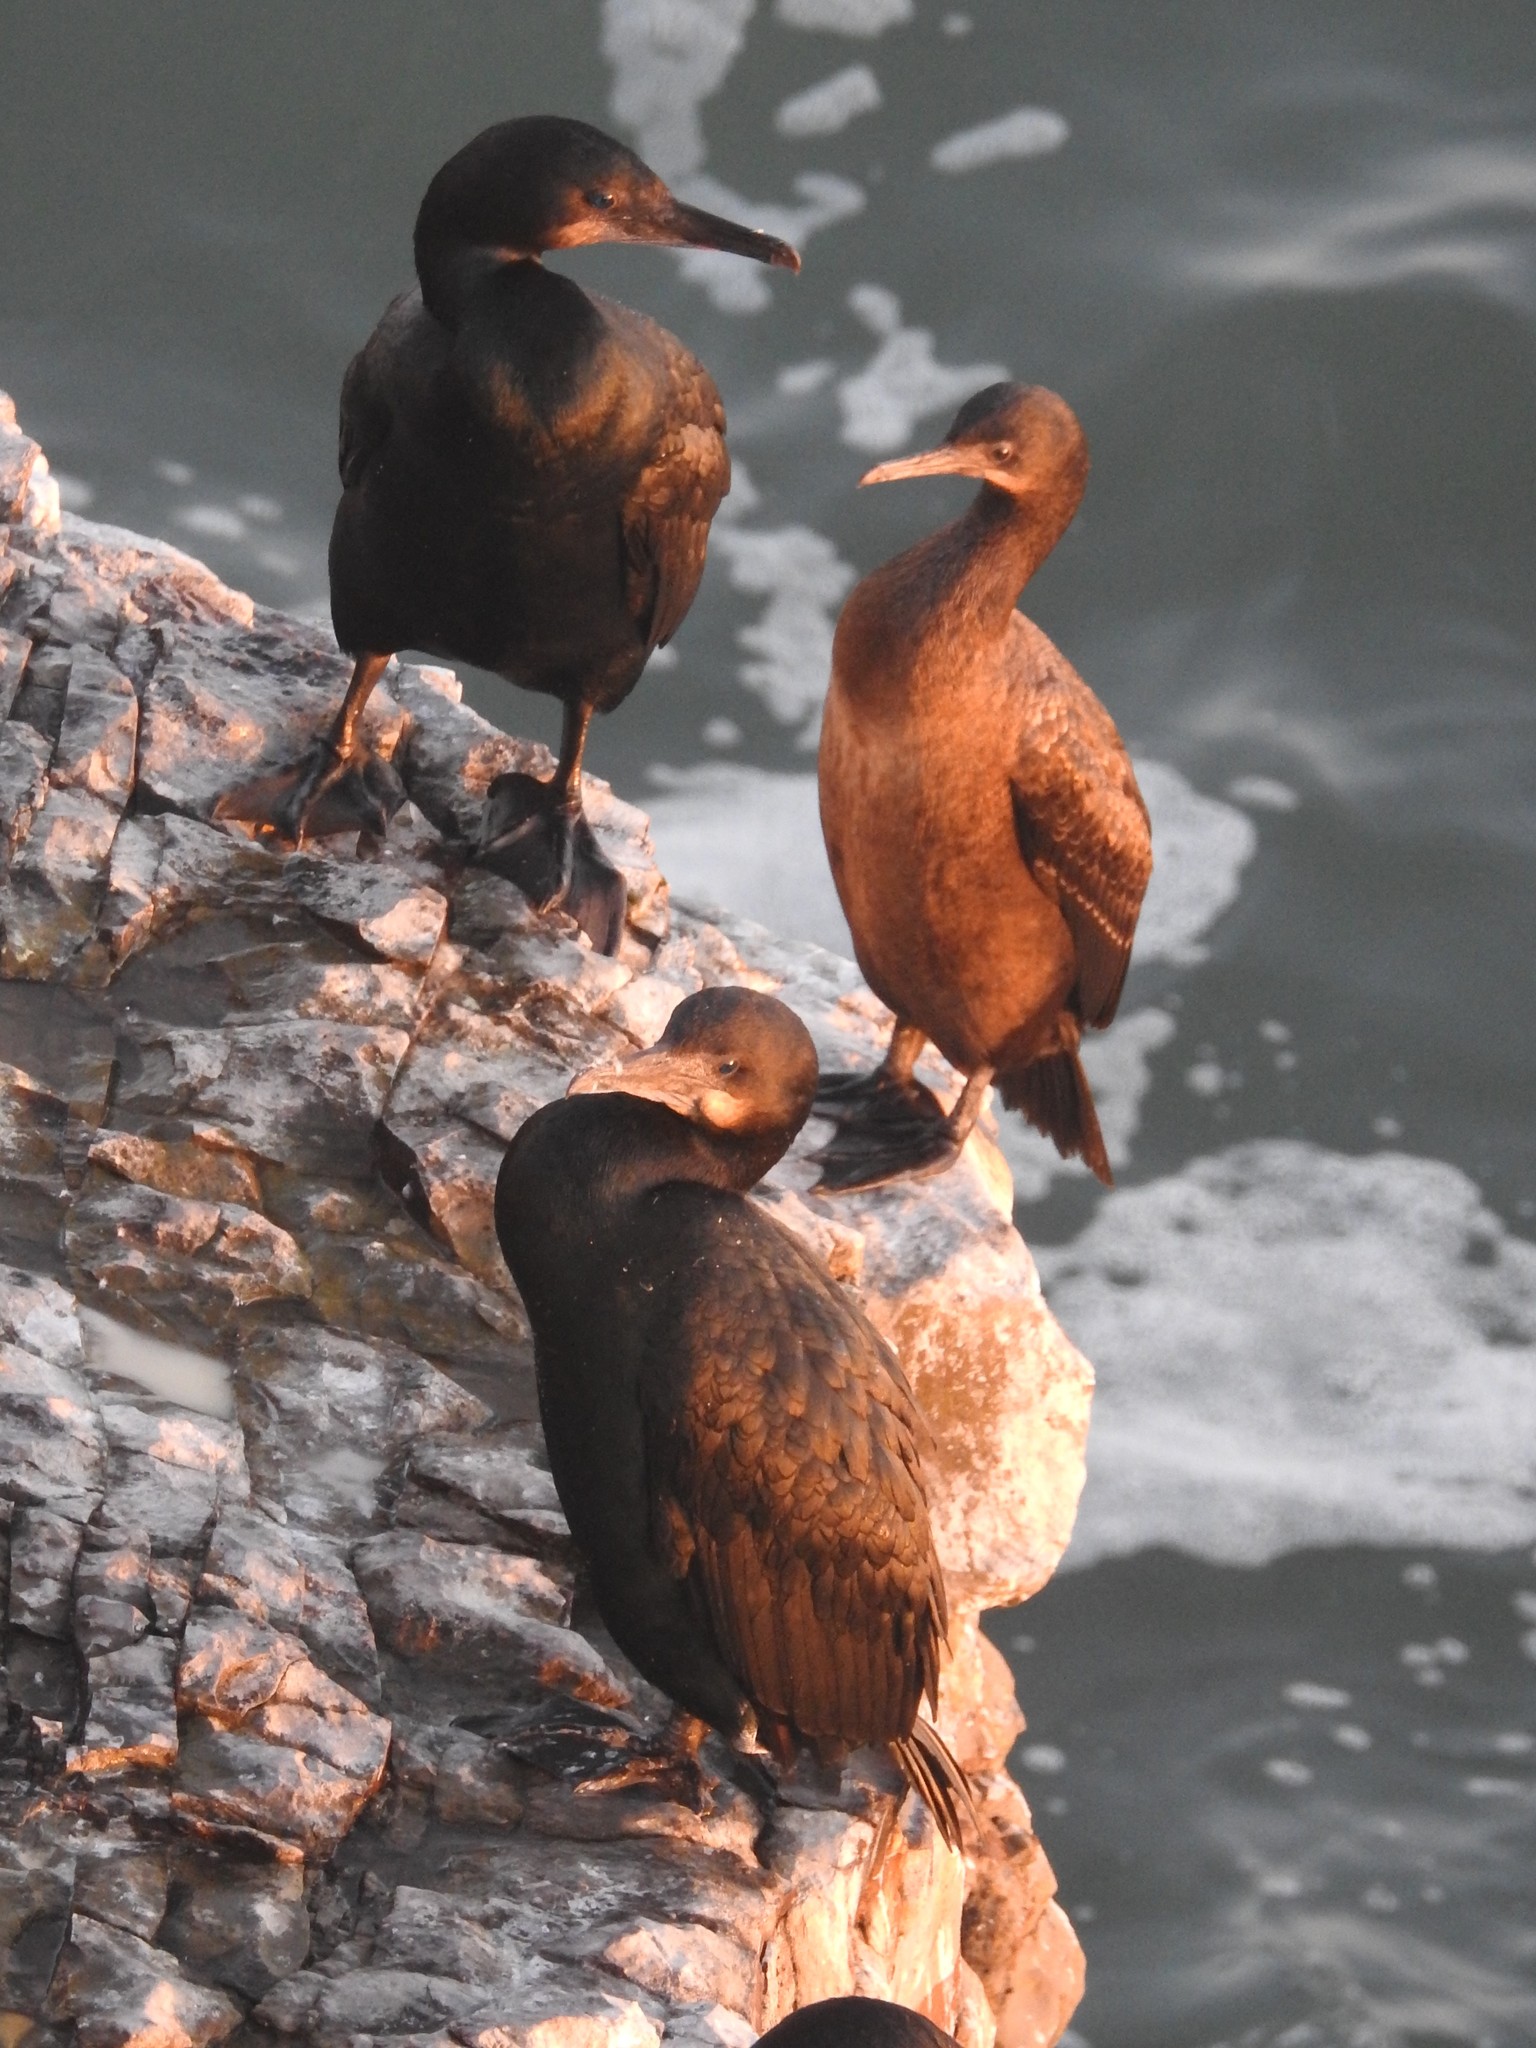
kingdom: Animalia
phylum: Chordata
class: Aves
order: Suliformes
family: Phalacrocoracidae
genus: Urile
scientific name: Urile penicillatus
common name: Brandt's cormorant
